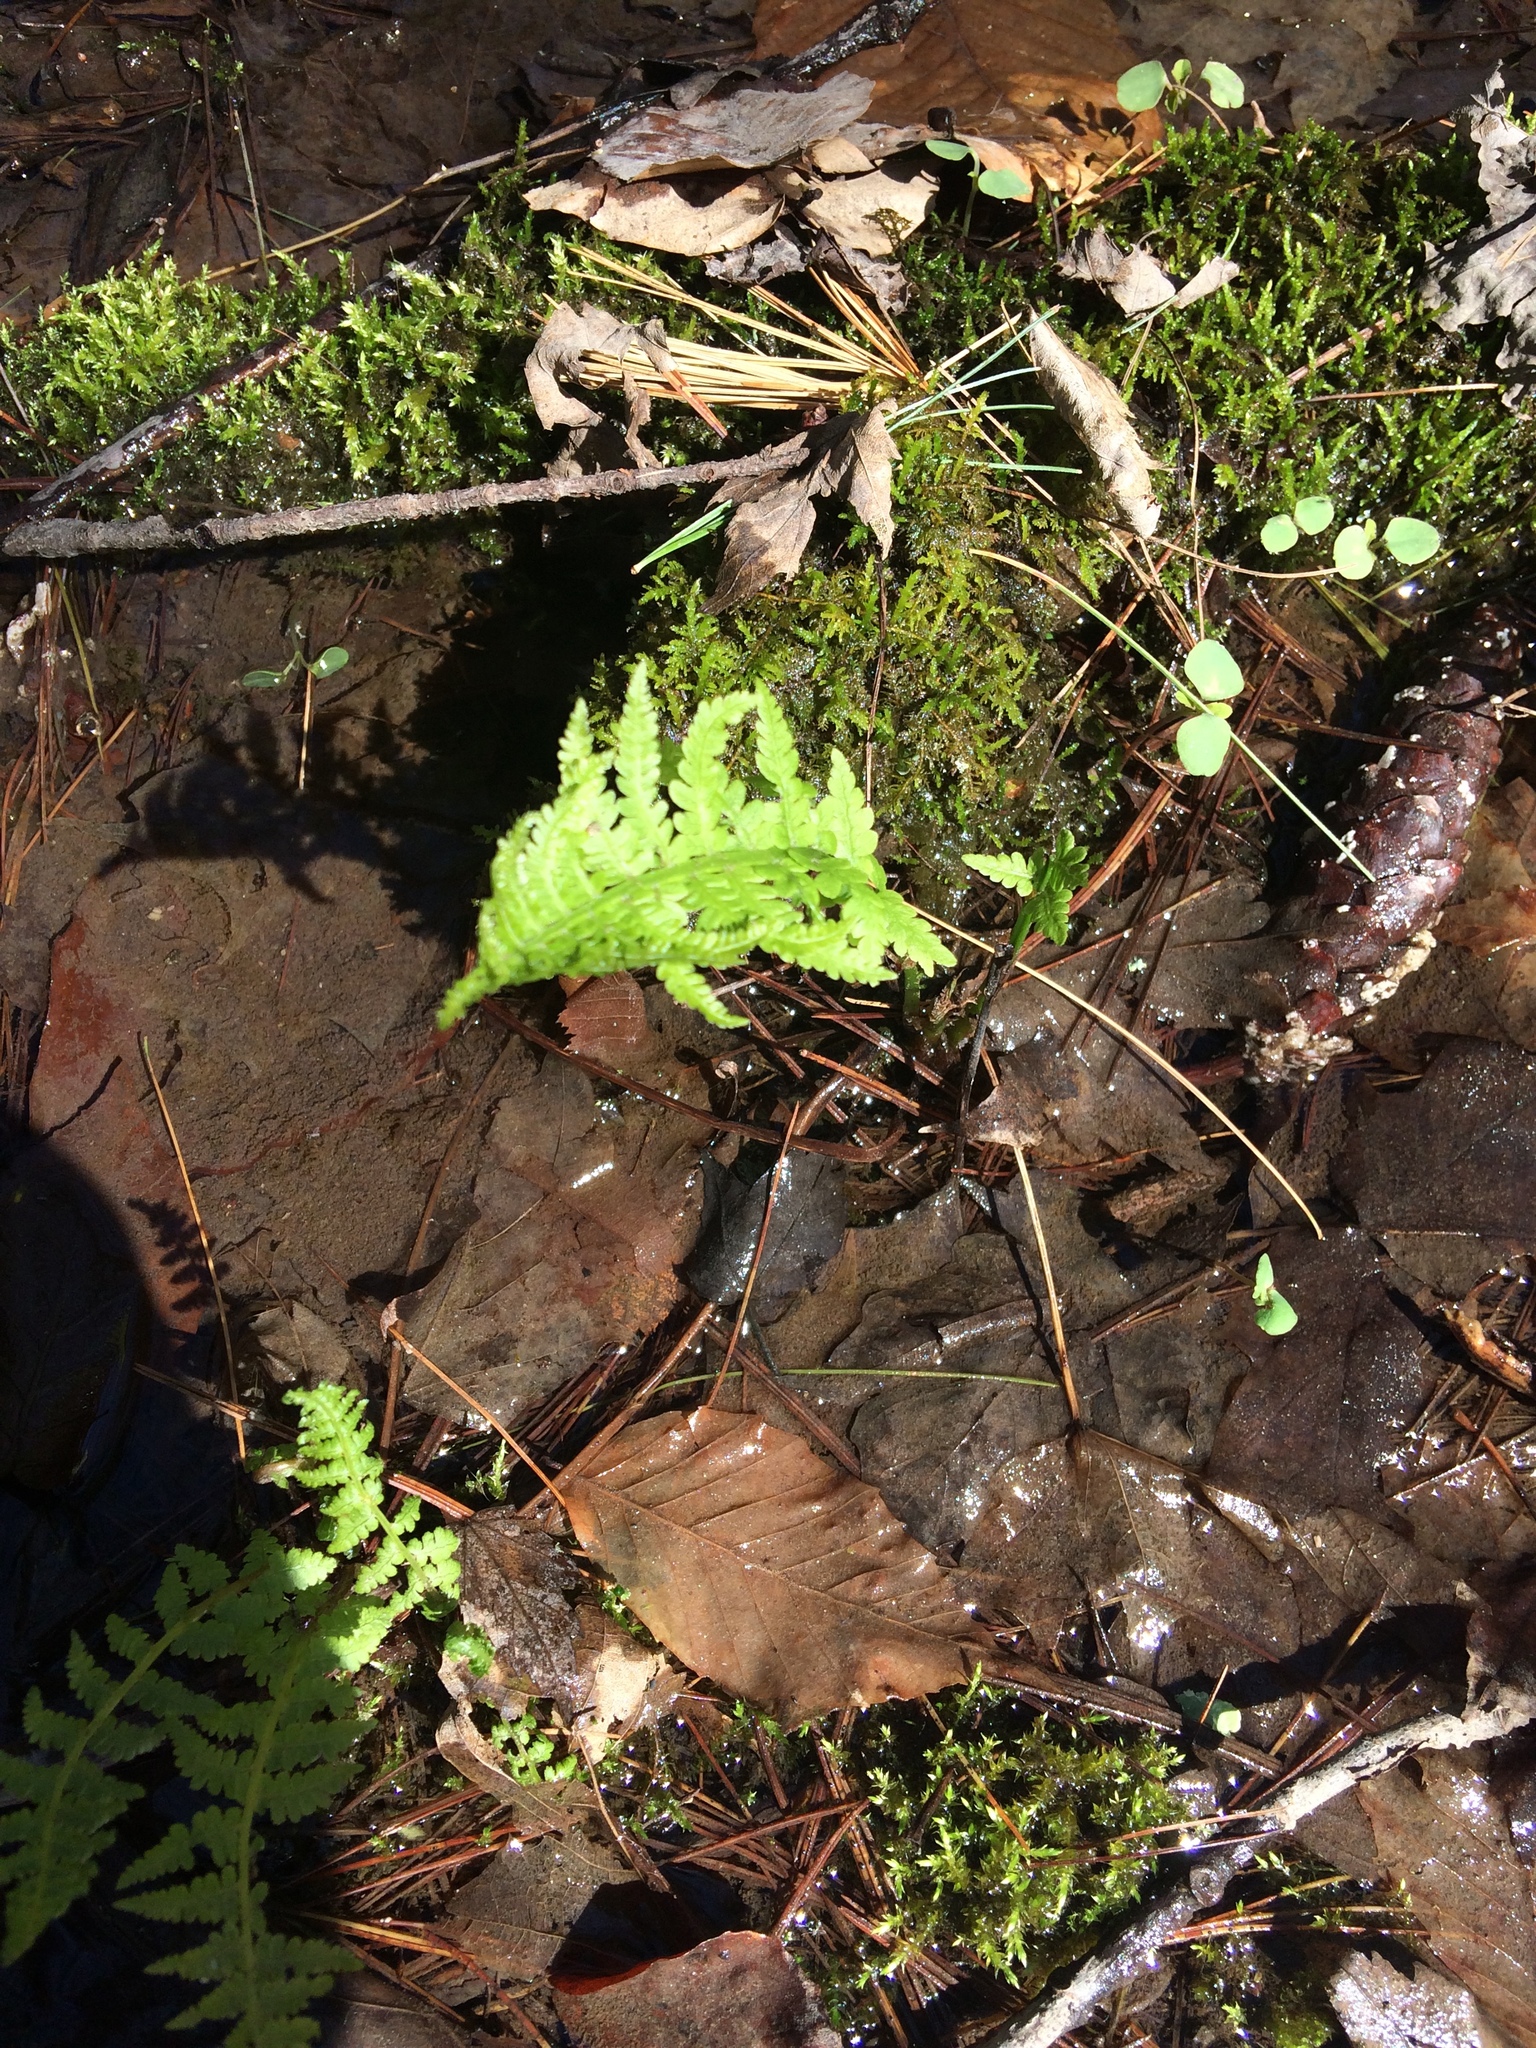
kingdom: Plantae
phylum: Tracheophyta
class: Polypodiopsida
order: Polypodiales
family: Onocleaceae
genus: Matteuccia
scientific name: Matteuccia struthiopteris
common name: Ostrich fern
